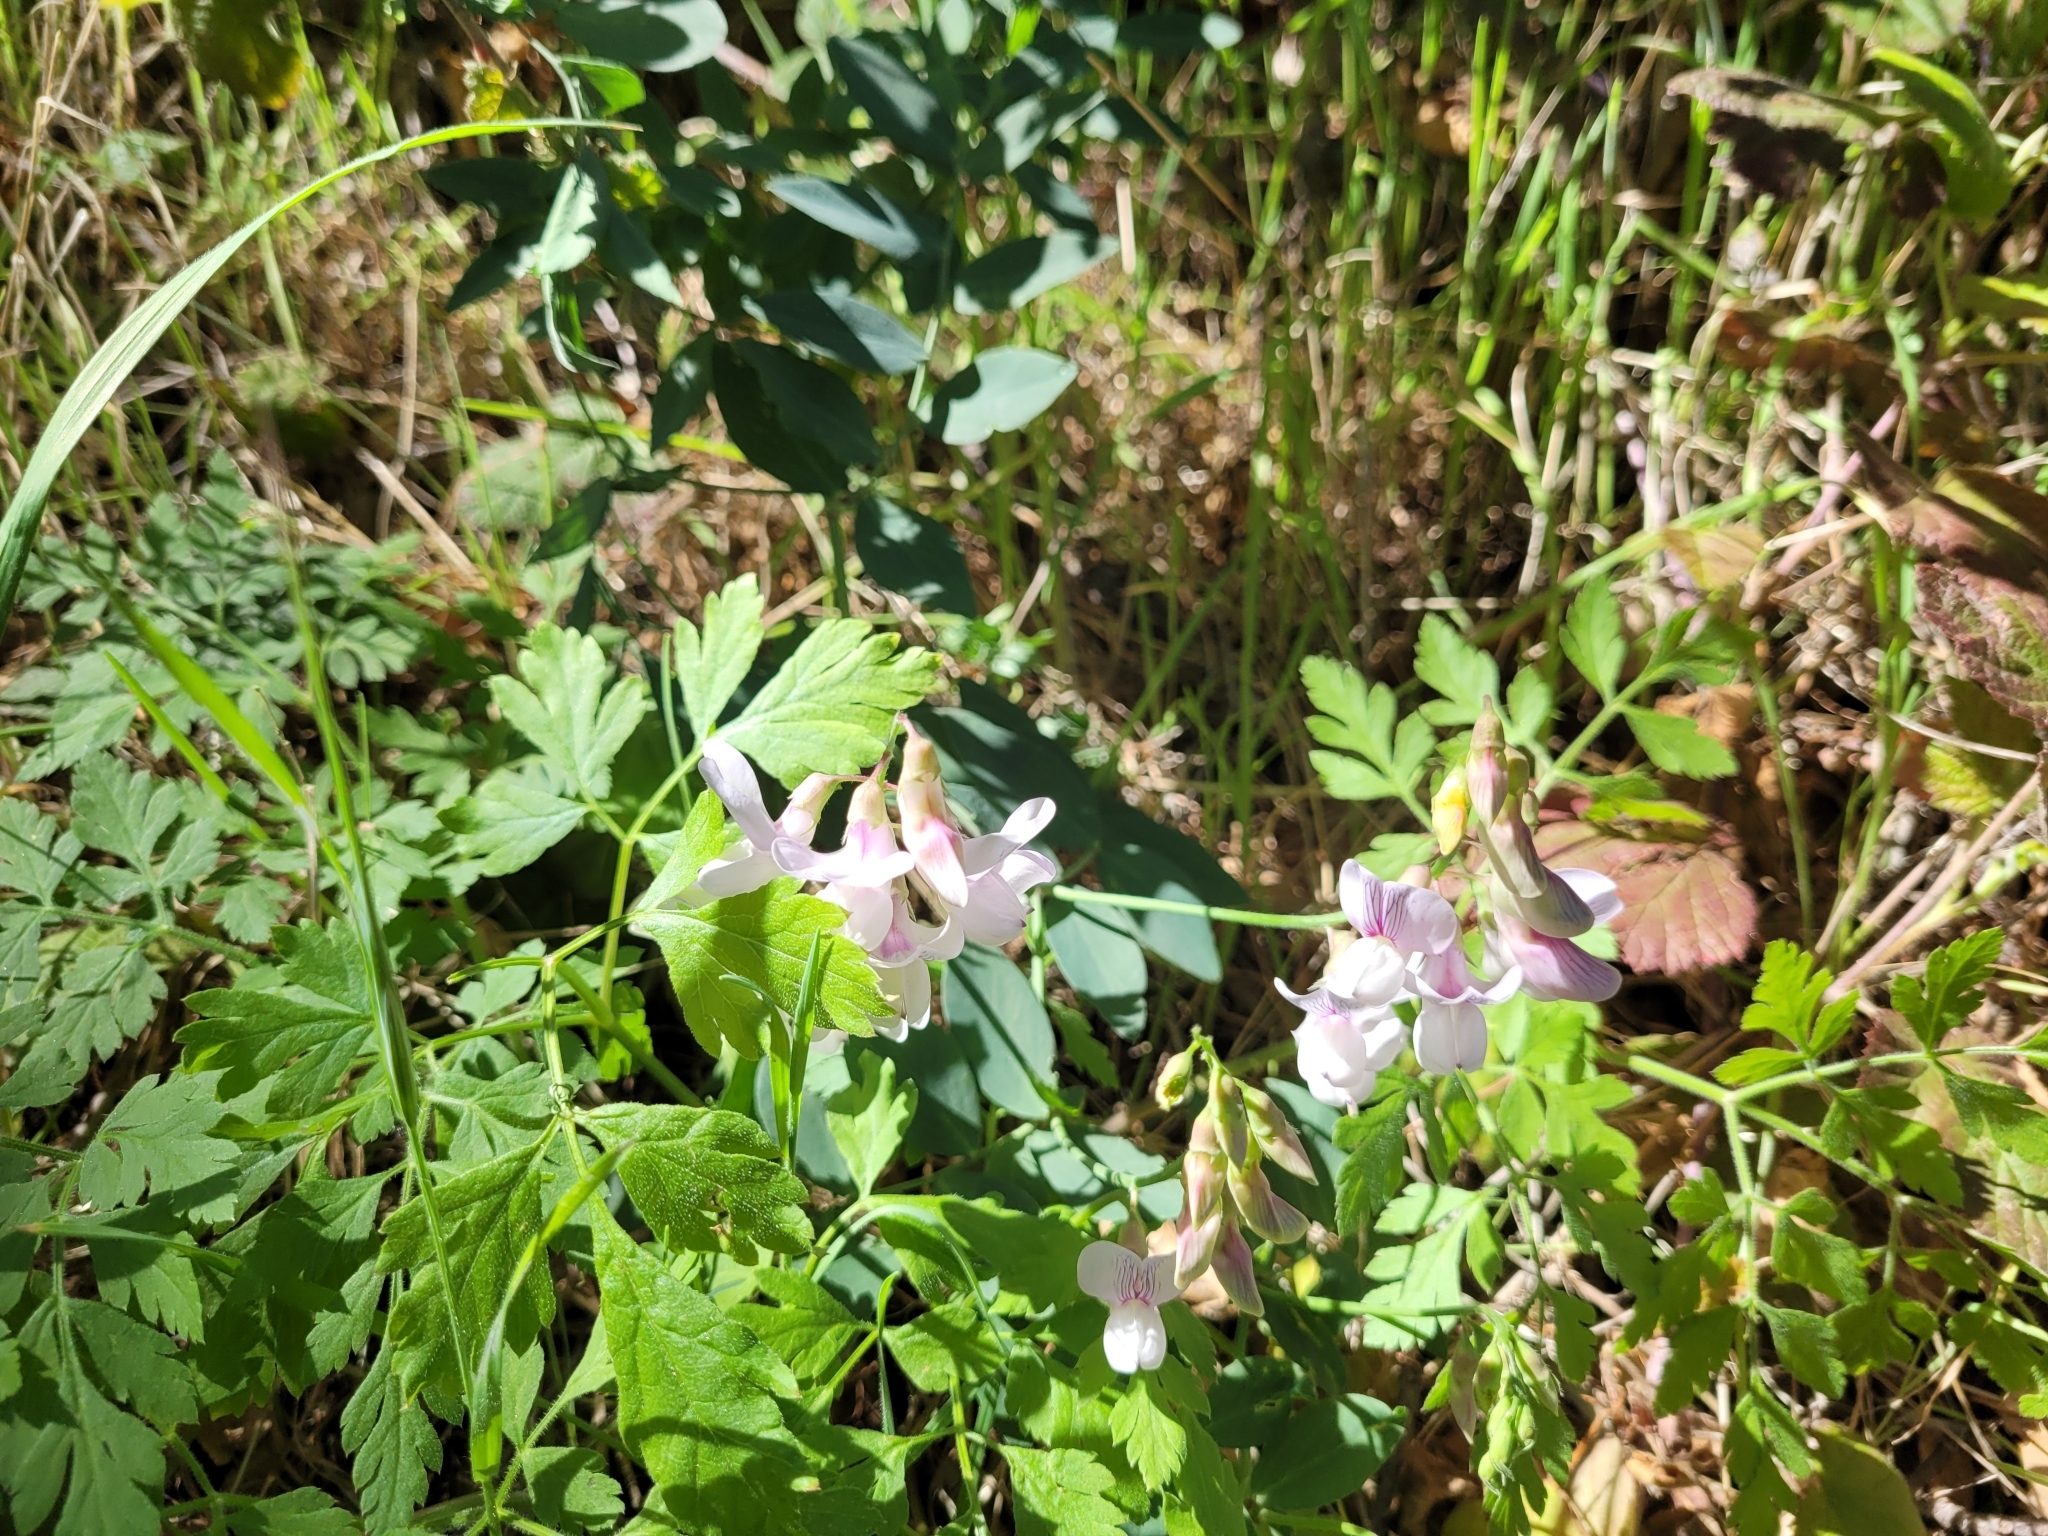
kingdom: Plantae
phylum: Tracheophyta
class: Magnoliopsida
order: Fabales
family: Fabaceae
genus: Lathyrus
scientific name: Lathyrus vestitus
